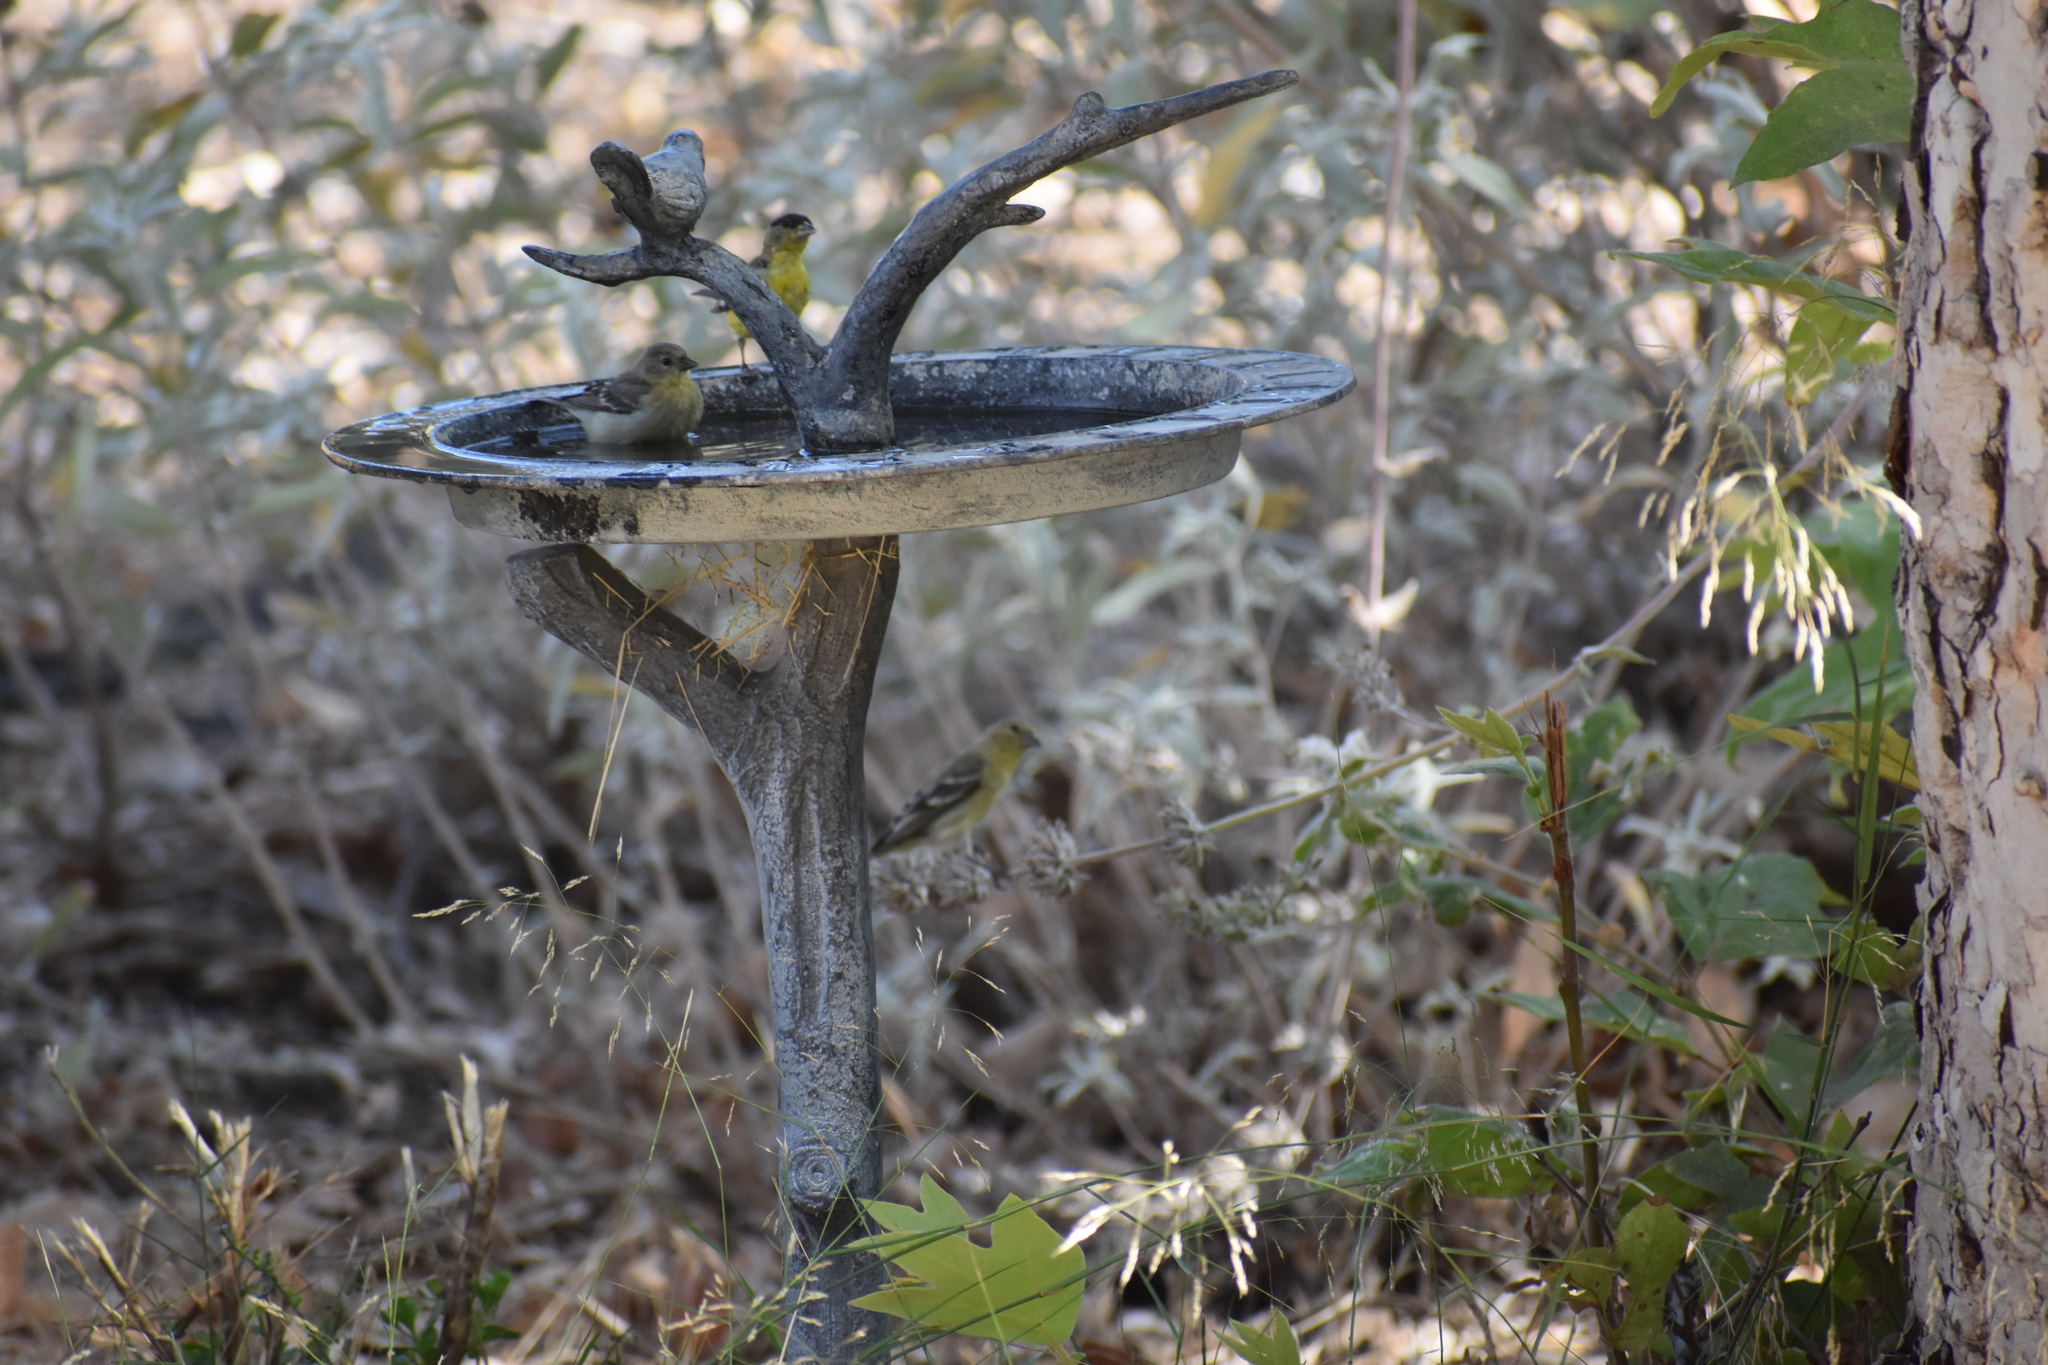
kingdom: Animalia
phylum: Chordata
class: Aves
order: Passeriformes
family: Fringillidae
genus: Spinus
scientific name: Spinus psaltria
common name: Lesser goldfinch
